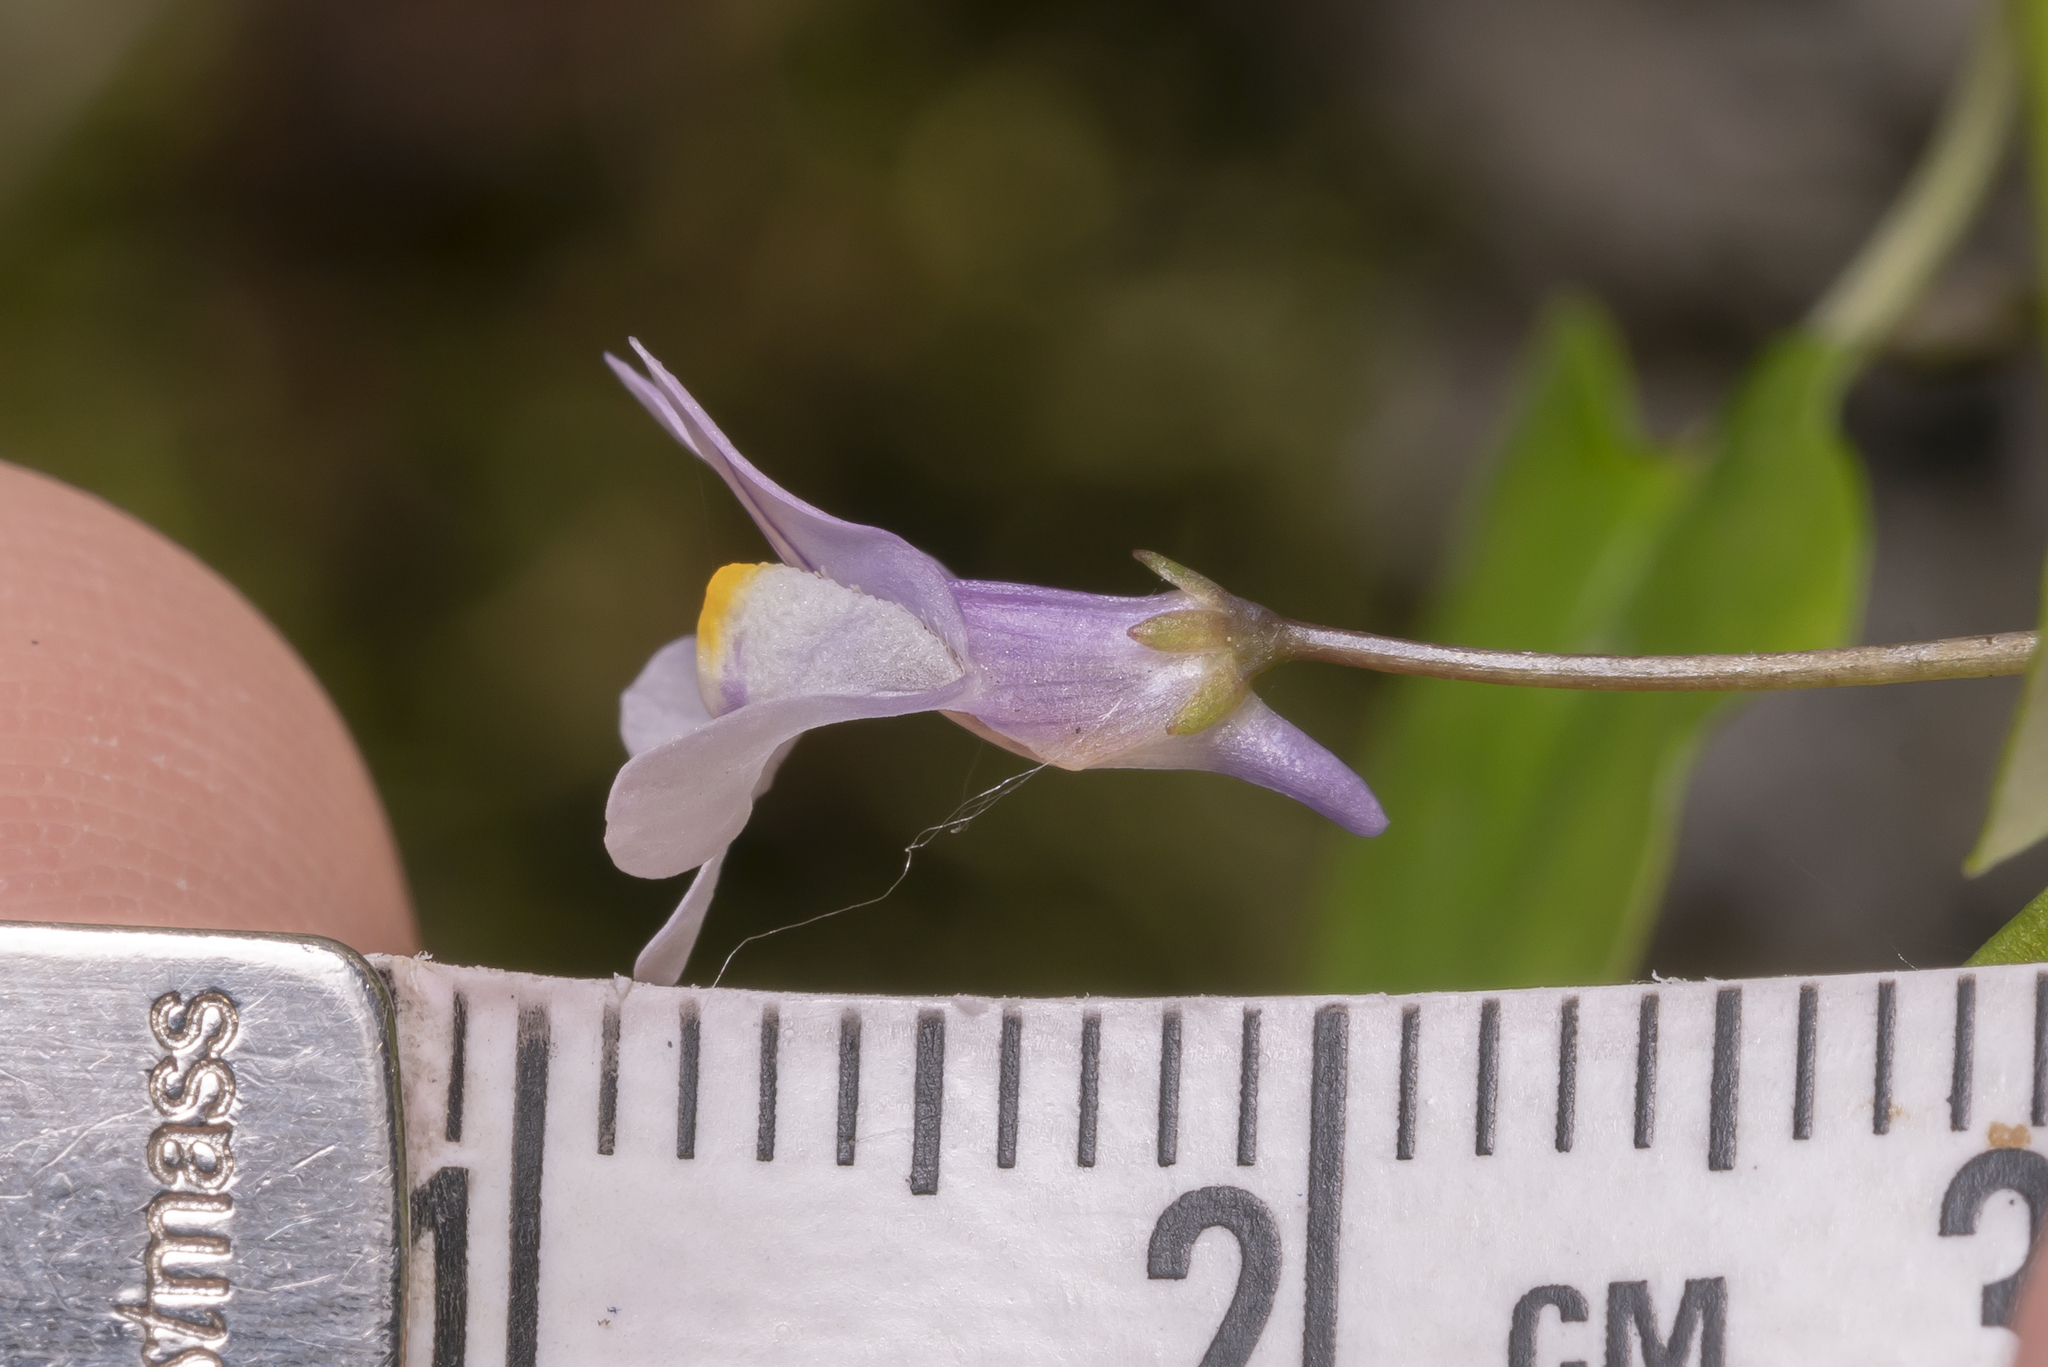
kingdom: Plantae
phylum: Tracheophyta
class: Magnoliopsida
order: Lamiales
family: Plantaginaceae
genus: Cymbalaria
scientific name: Cymbalaria muralis
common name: Ivy-leaved toadflax
